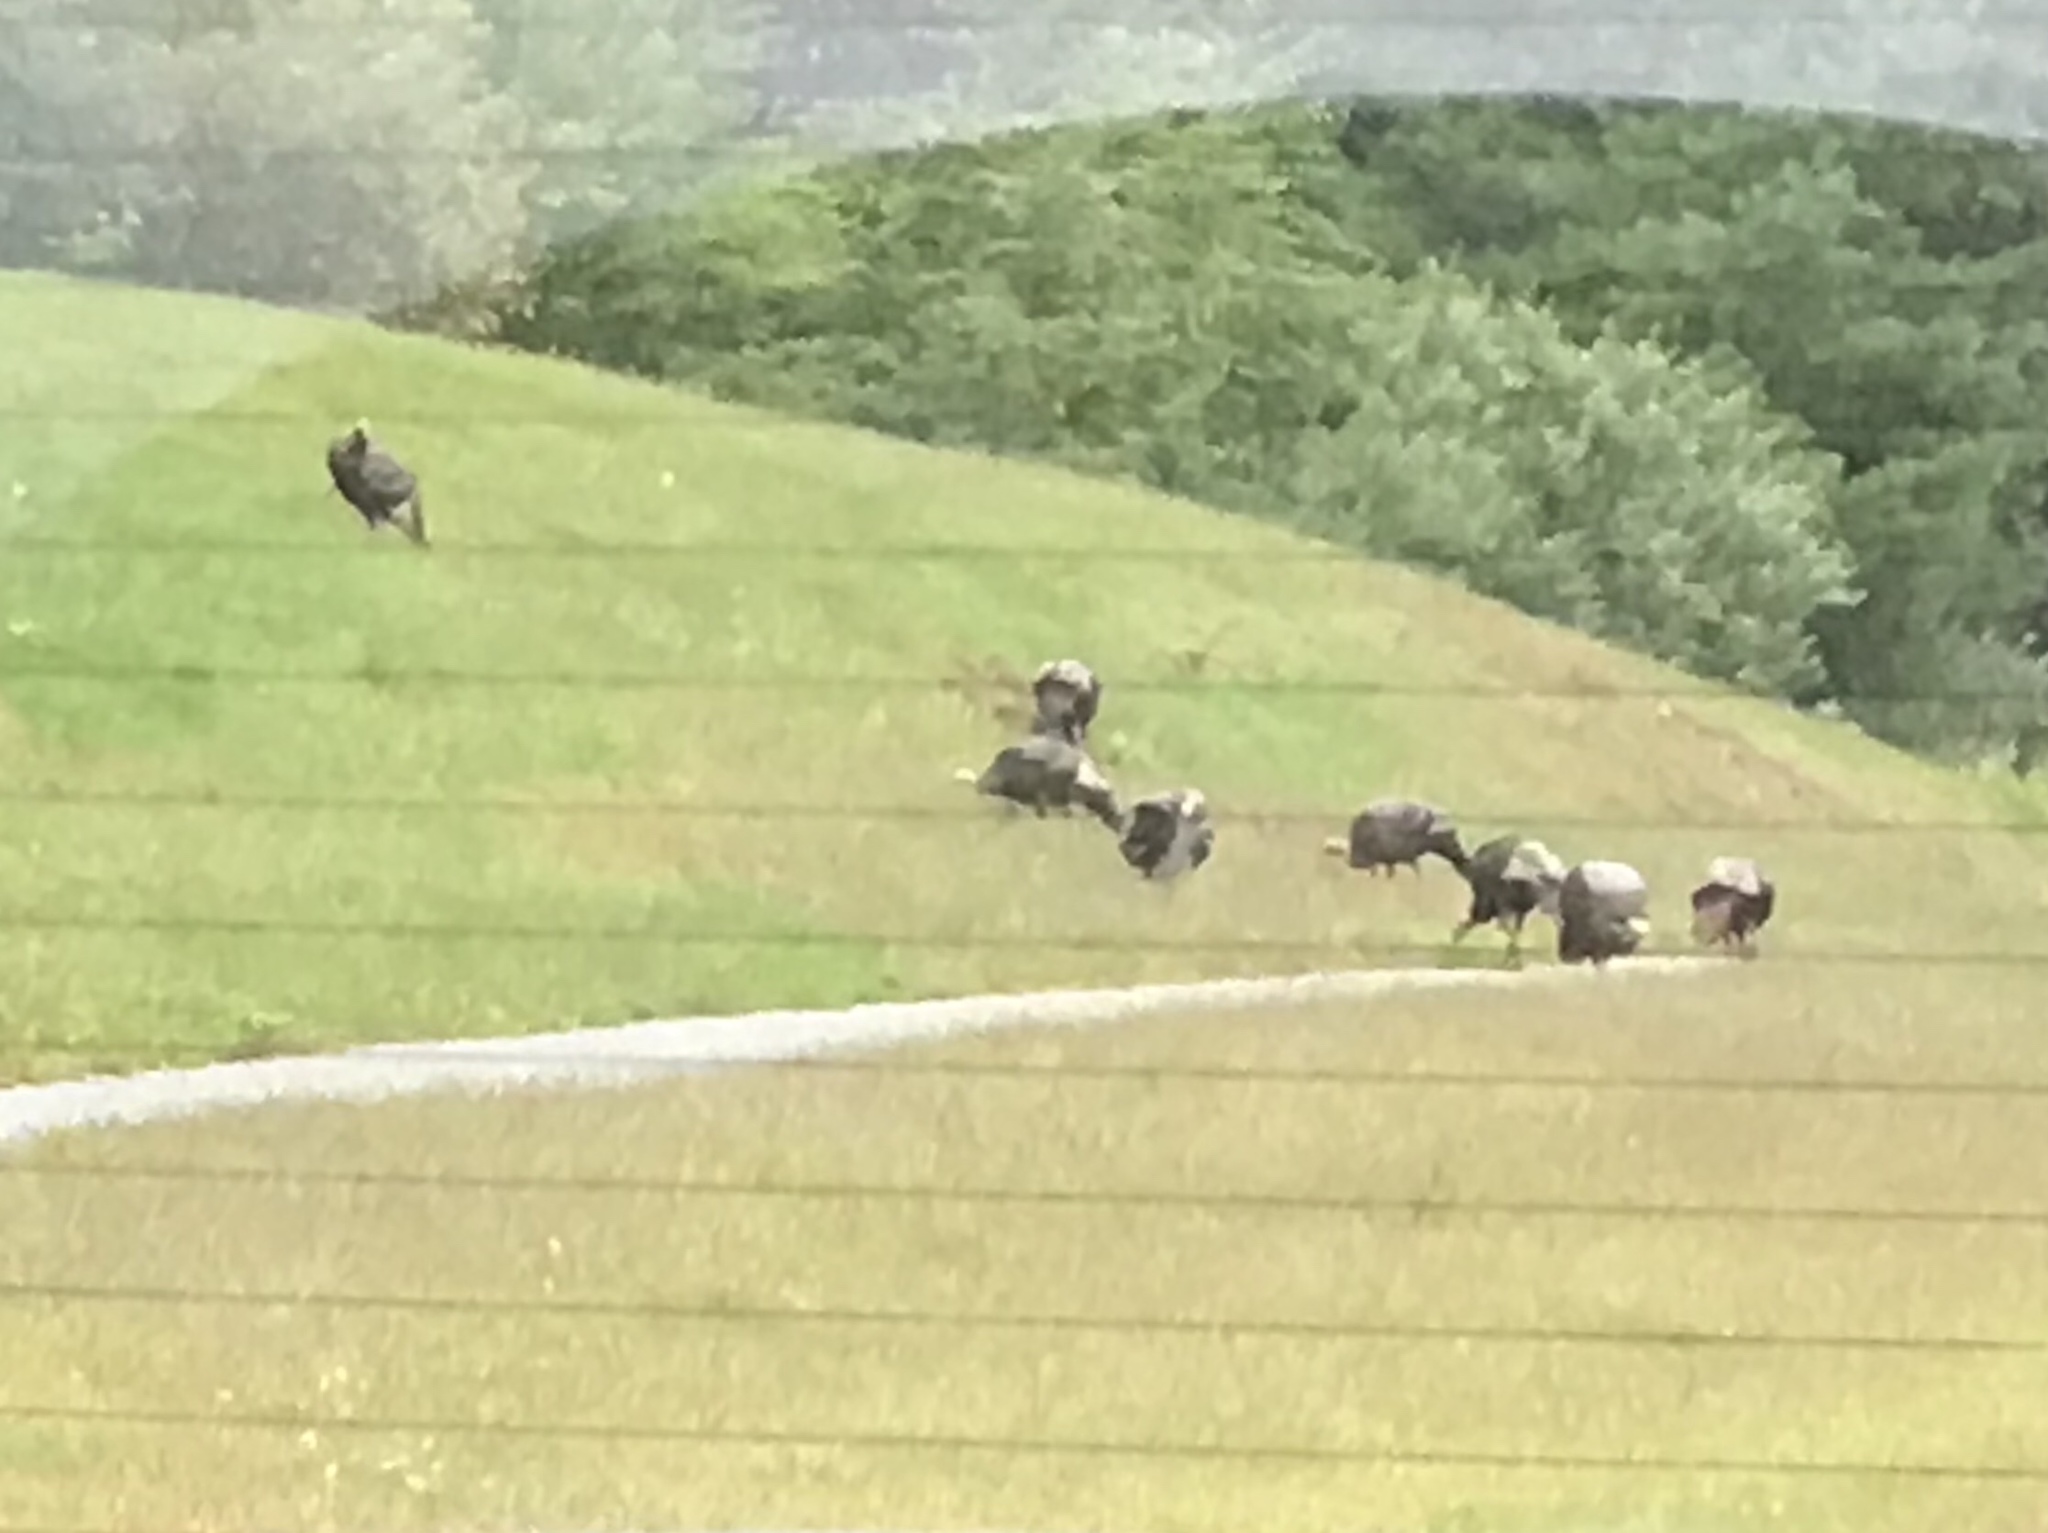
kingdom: Animalia
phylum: Chordata
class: Aves
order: Galliformes
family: Phasianidae
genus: Meleagris
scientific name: Meleagris gallopavo
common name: Wild turkey
